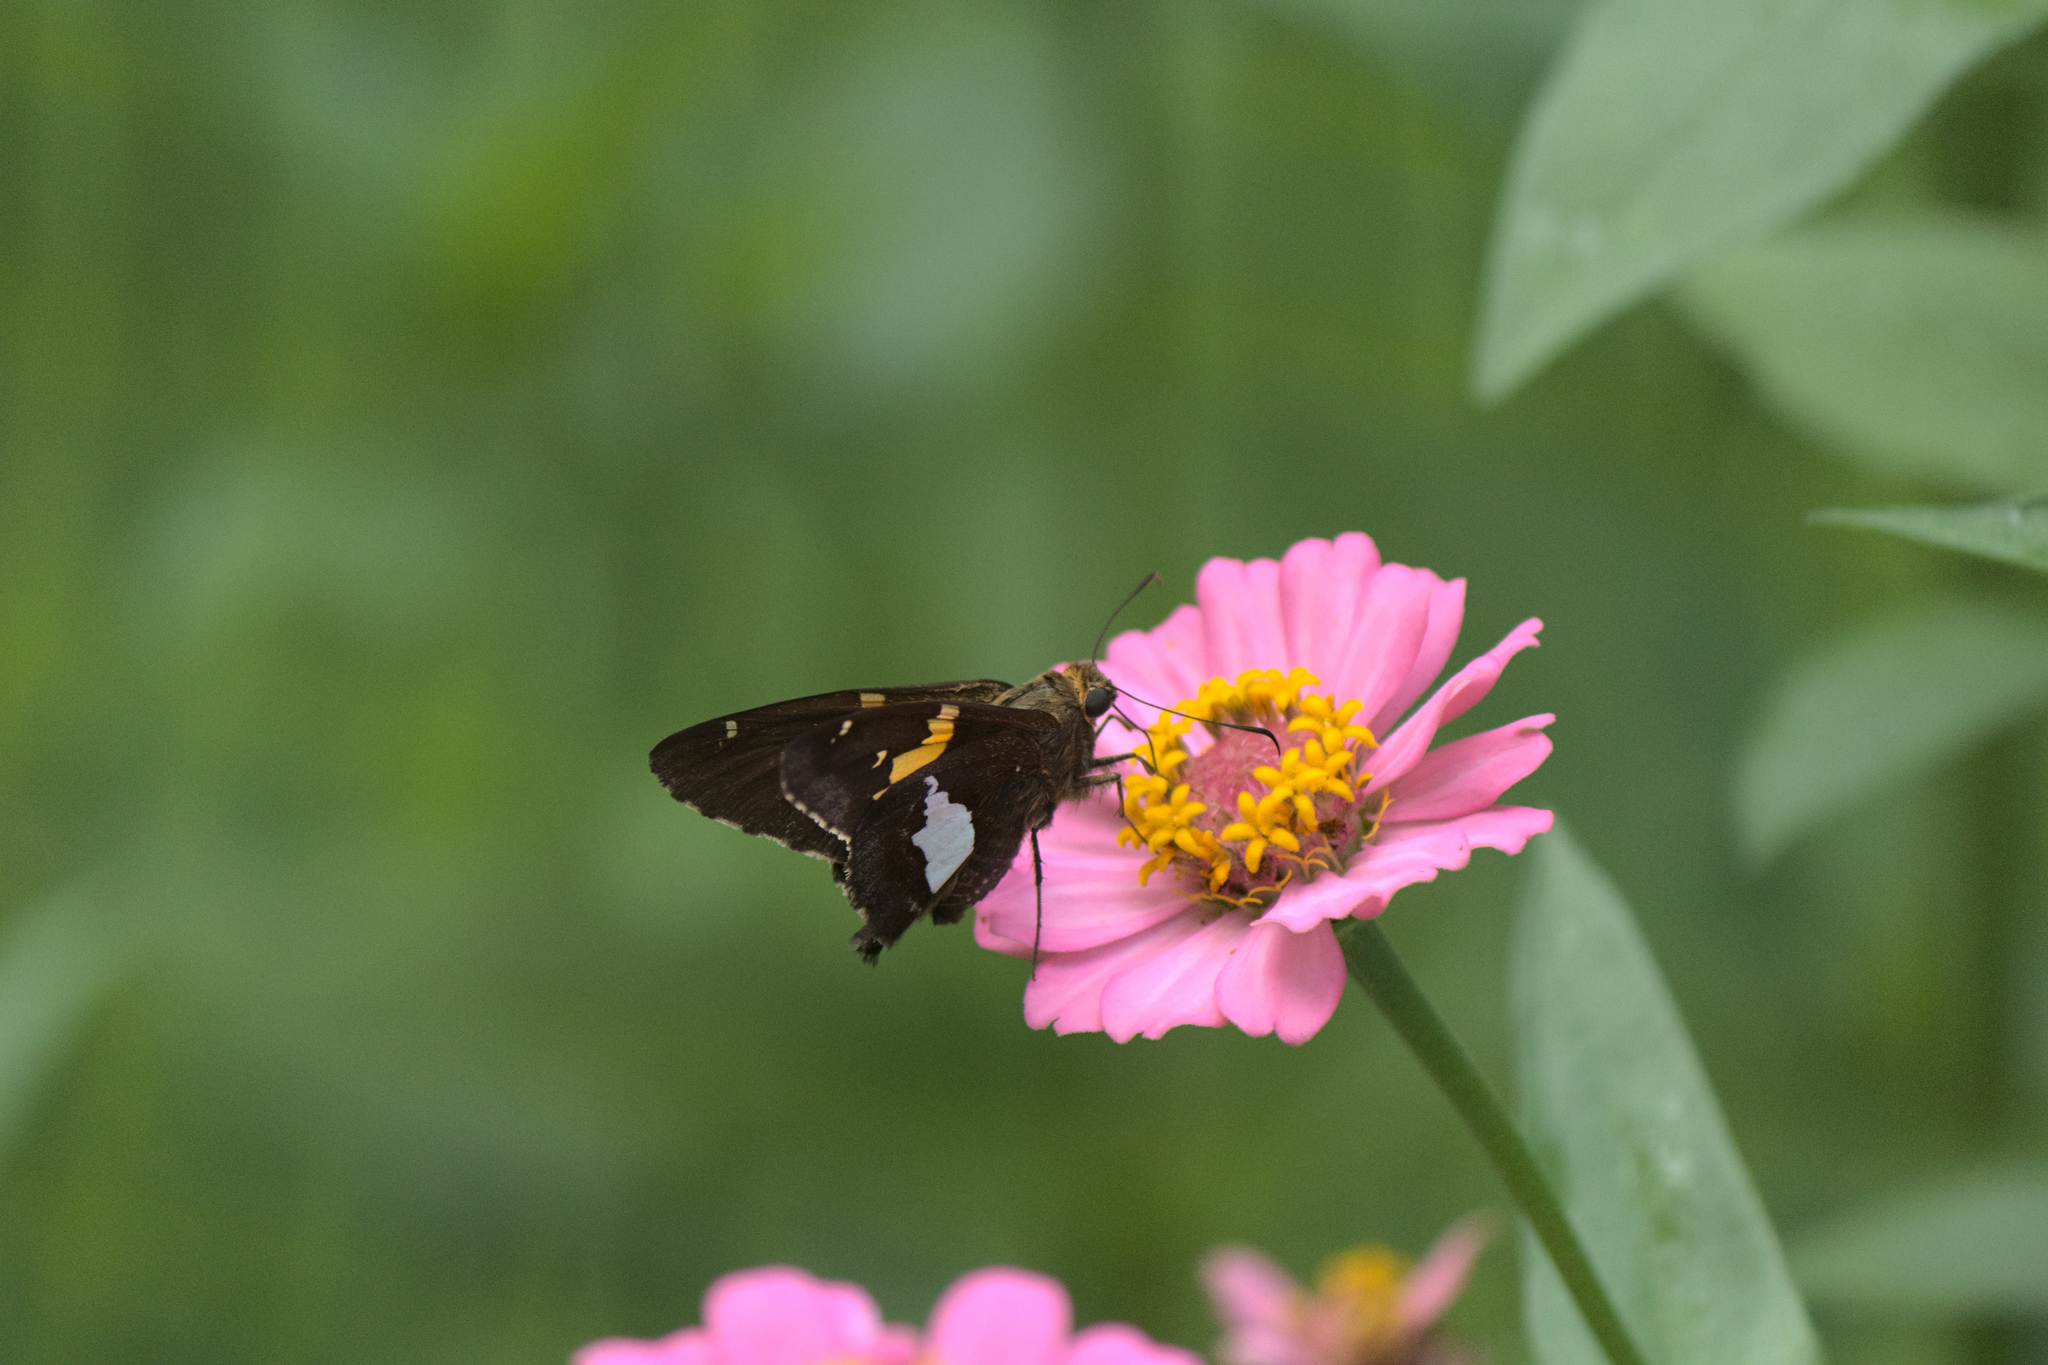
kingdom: Animalia
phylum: Arthropoda
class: Insecta
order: Lepidoptera
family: Hesperiidae
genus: Epargyreus
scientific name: Epargyreus clarus
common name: Silver-spotted skipper
